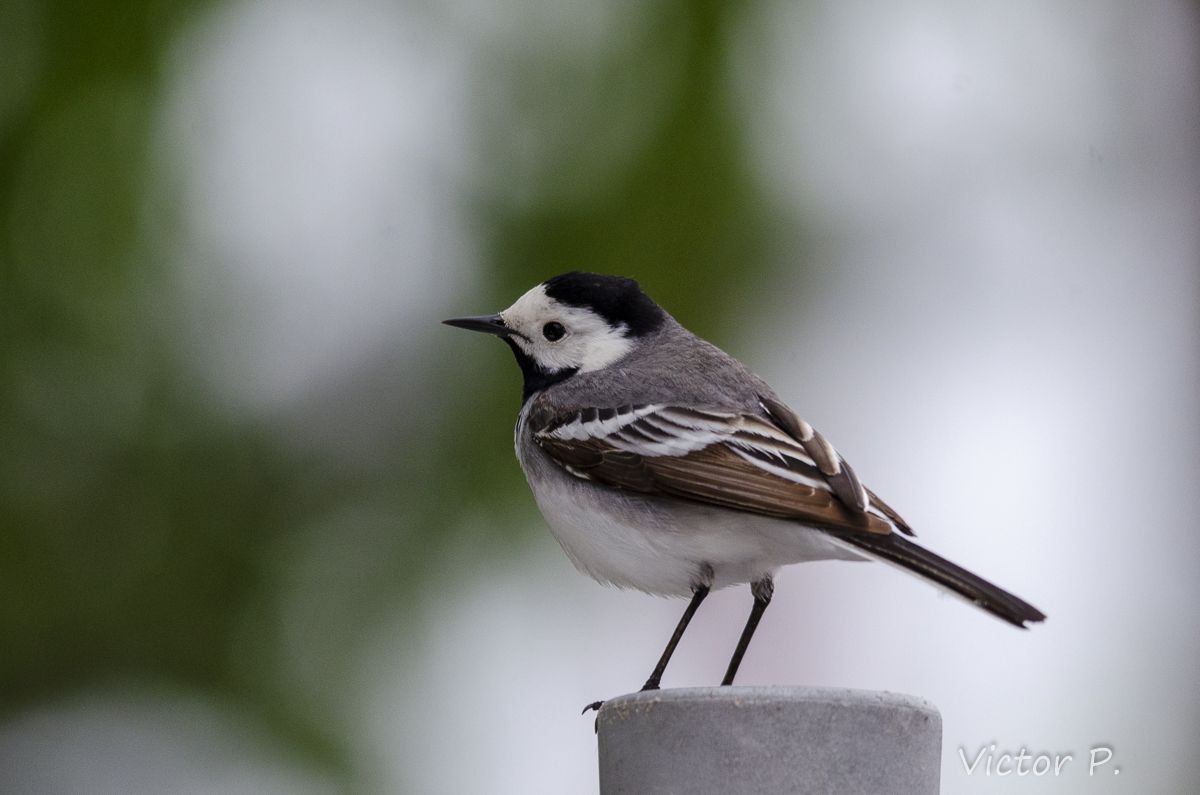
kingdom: Animalia
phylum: Chordata
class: Aves
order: Passeriformes
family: Motacillidae
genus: Motacilla
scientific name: Motacilla alba
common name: White wagtail
